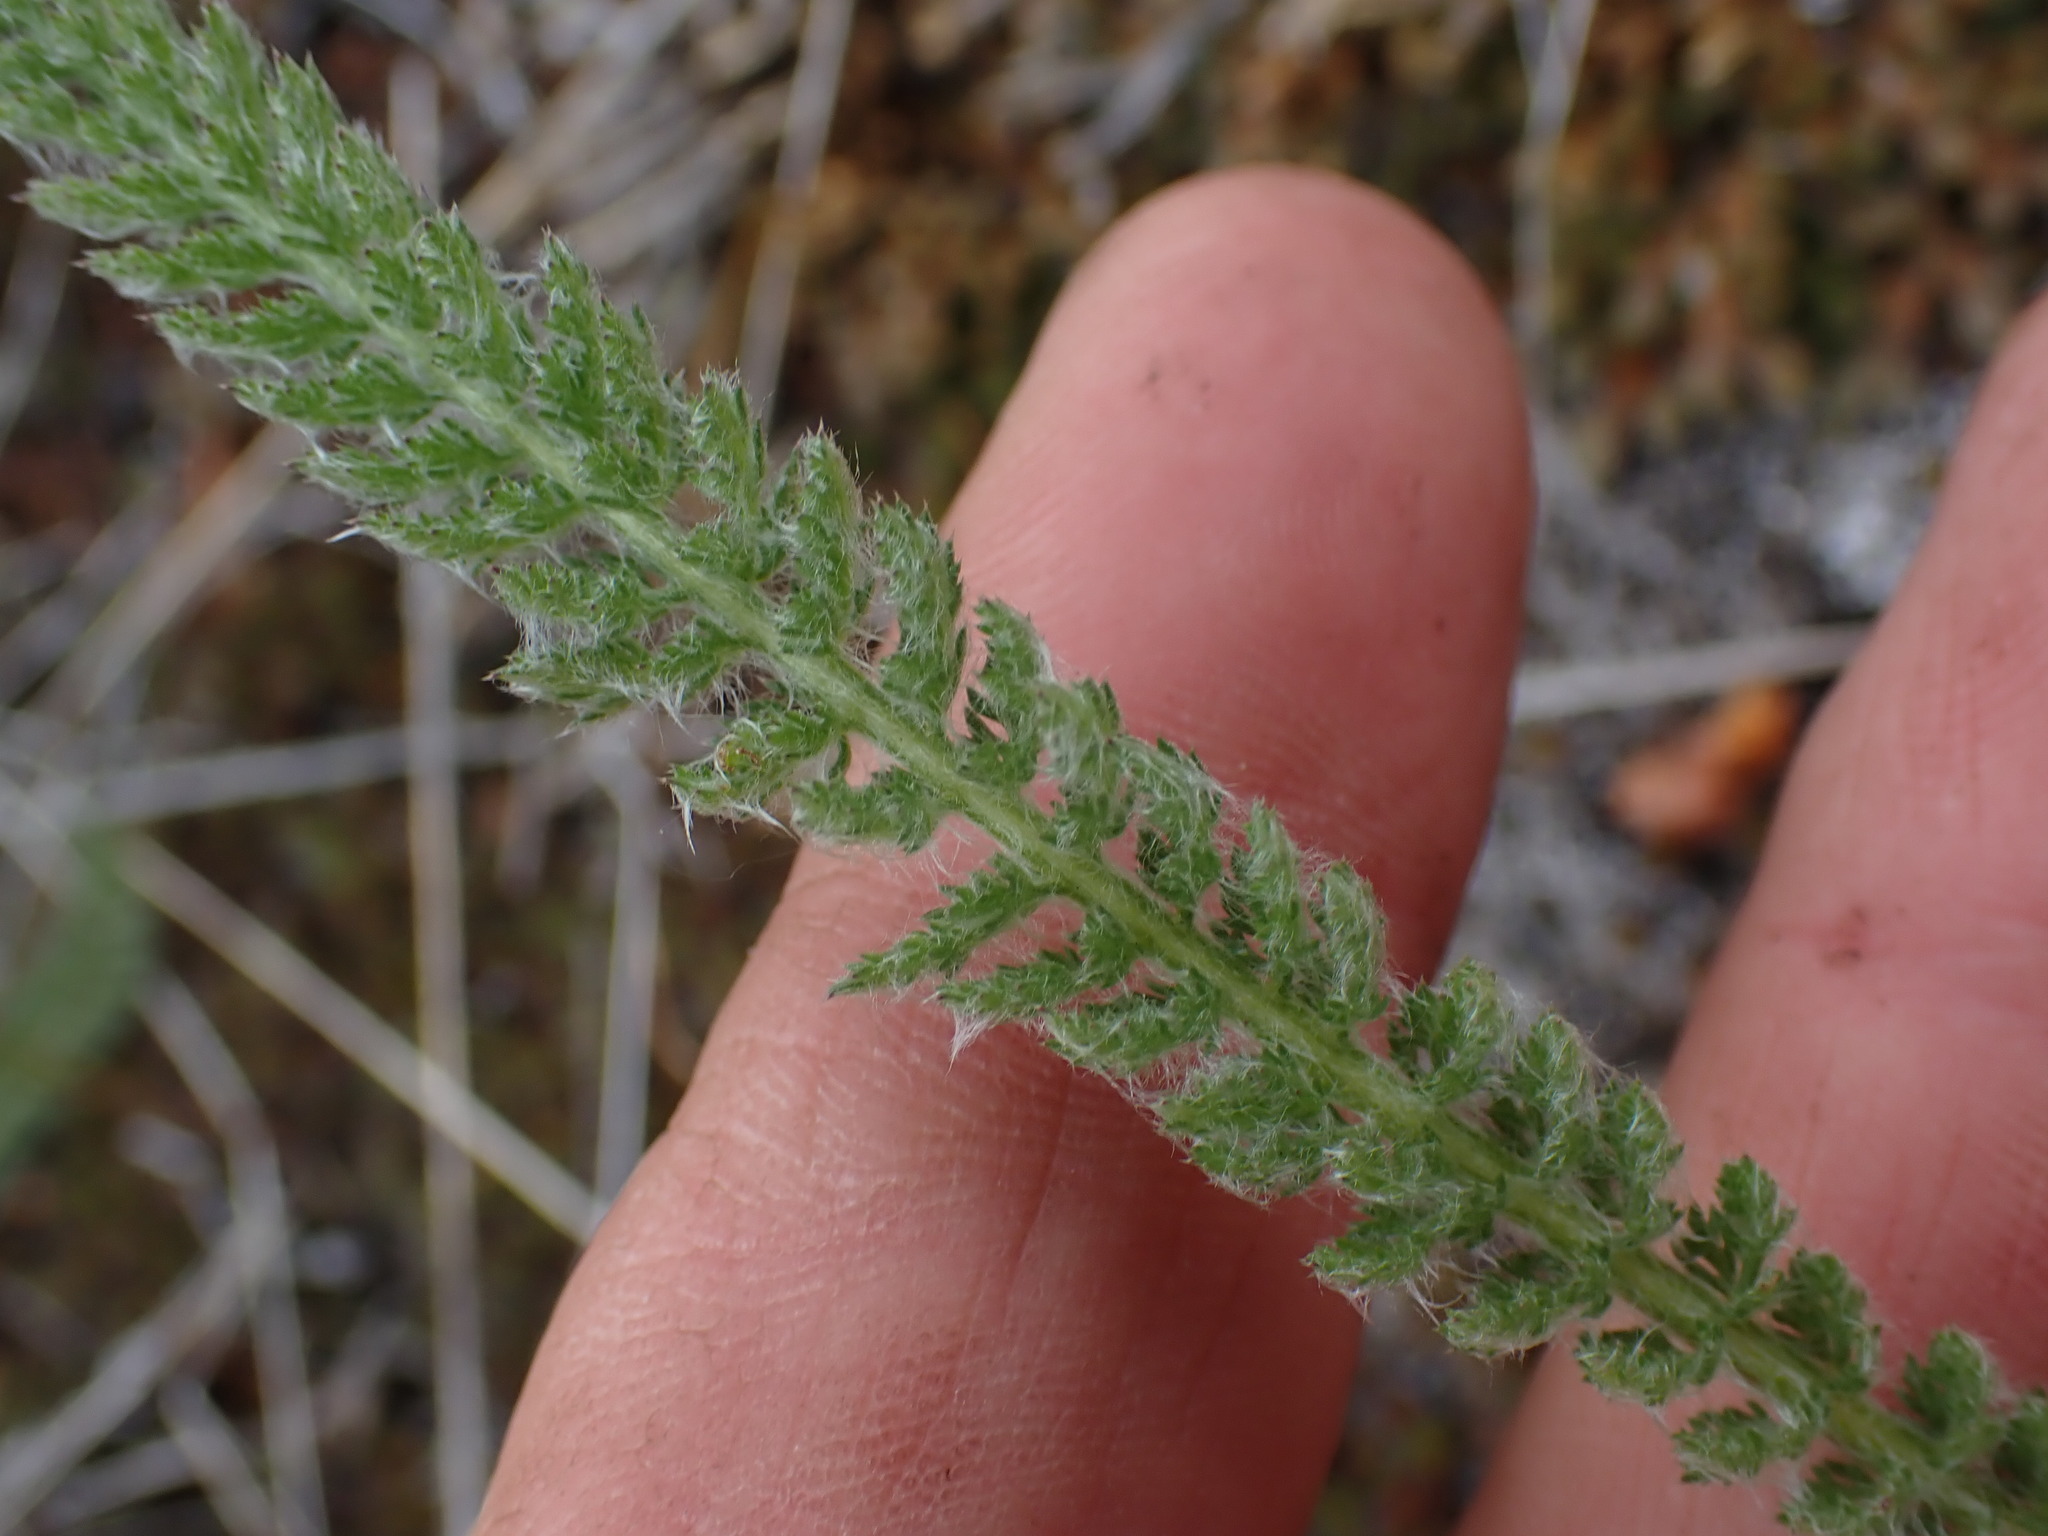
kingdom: Plantae
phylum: Tracheophyta
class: Magnoliopsida
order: Asterales
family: Asteraceae
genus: Achillea
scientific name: Achillea millefolium
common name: Yarrow
